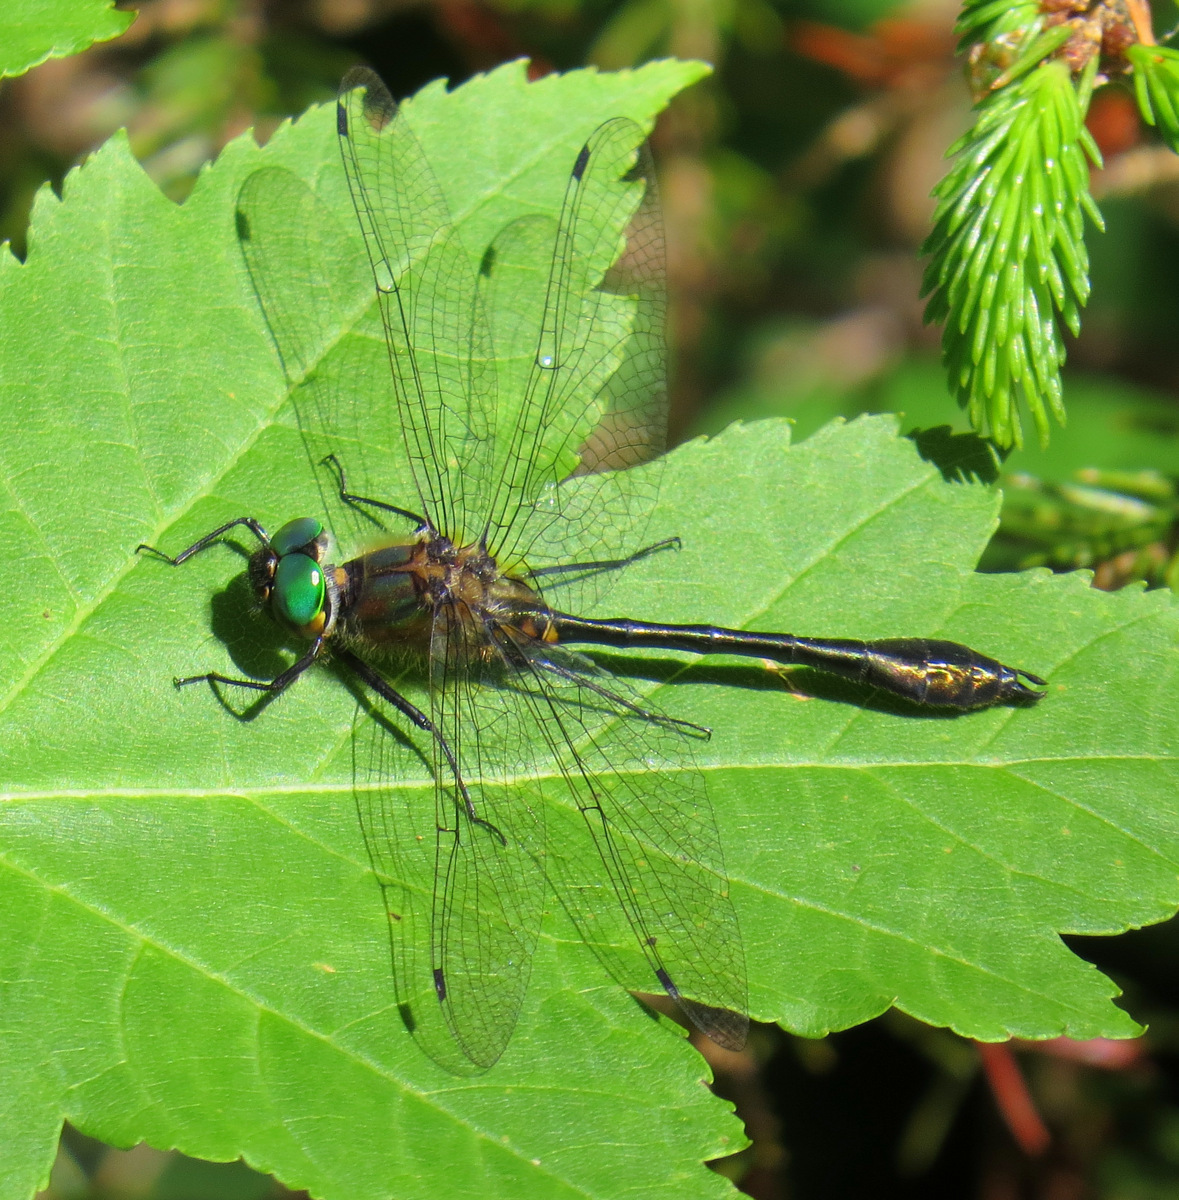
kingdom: Animalia
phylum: Arthropoda
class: Insecta
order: Odonata
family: Corduliidae
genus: Dorocordulia
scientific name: Dorocordulia libera
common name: Racket-tailed emerald
